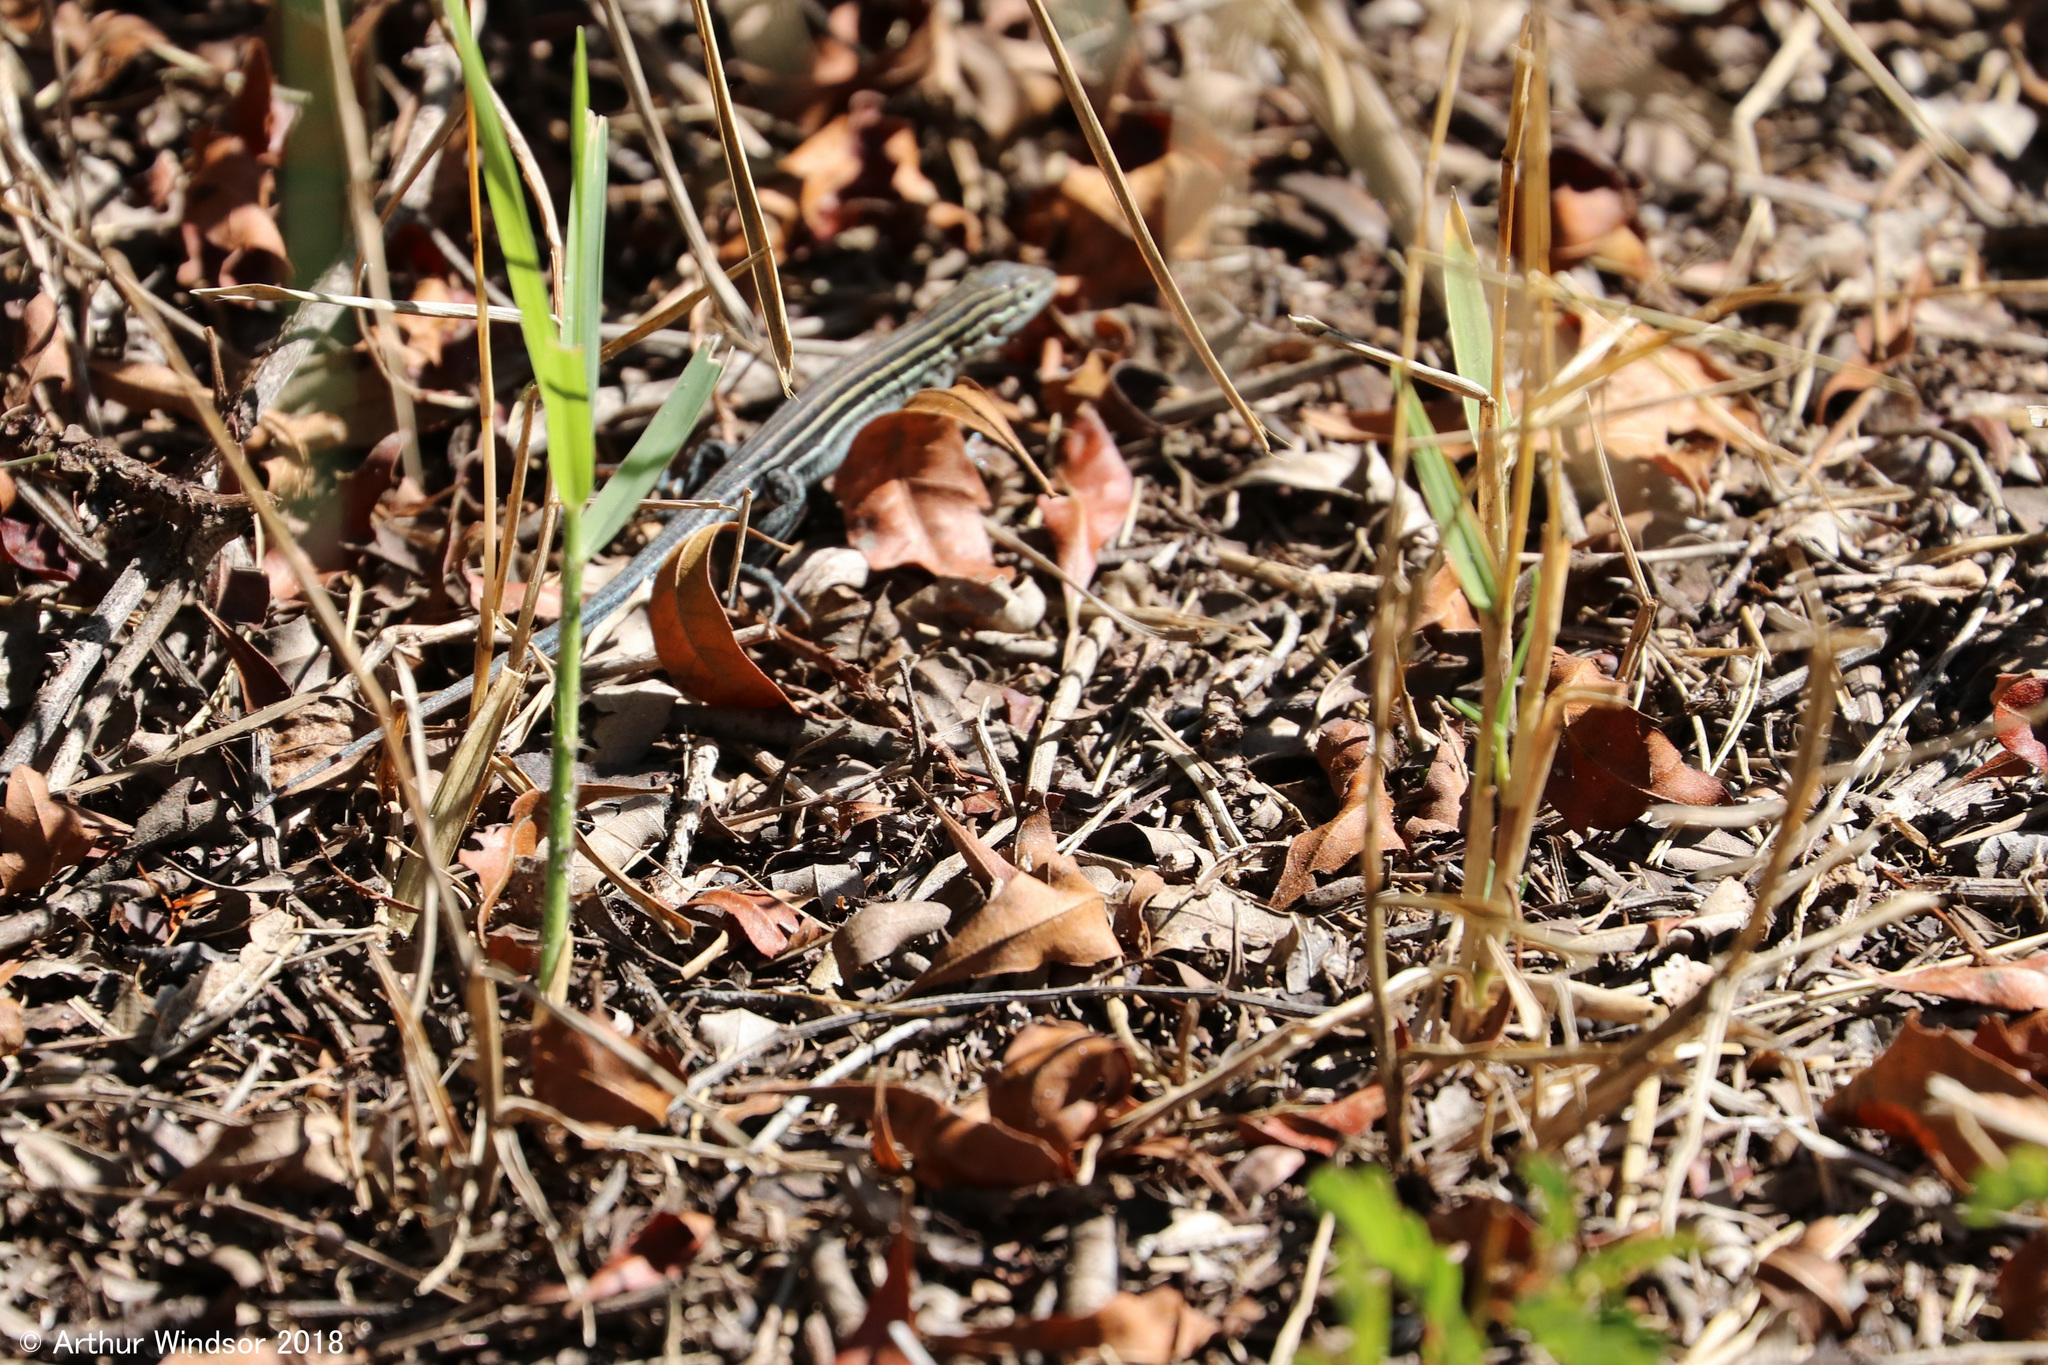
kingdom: Animalia
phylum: Chordata
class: Squamata
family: Teiidae
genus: Aspidoscelis
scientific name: Aspidoscelis sexlineatus
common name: Six-lined racerunner
